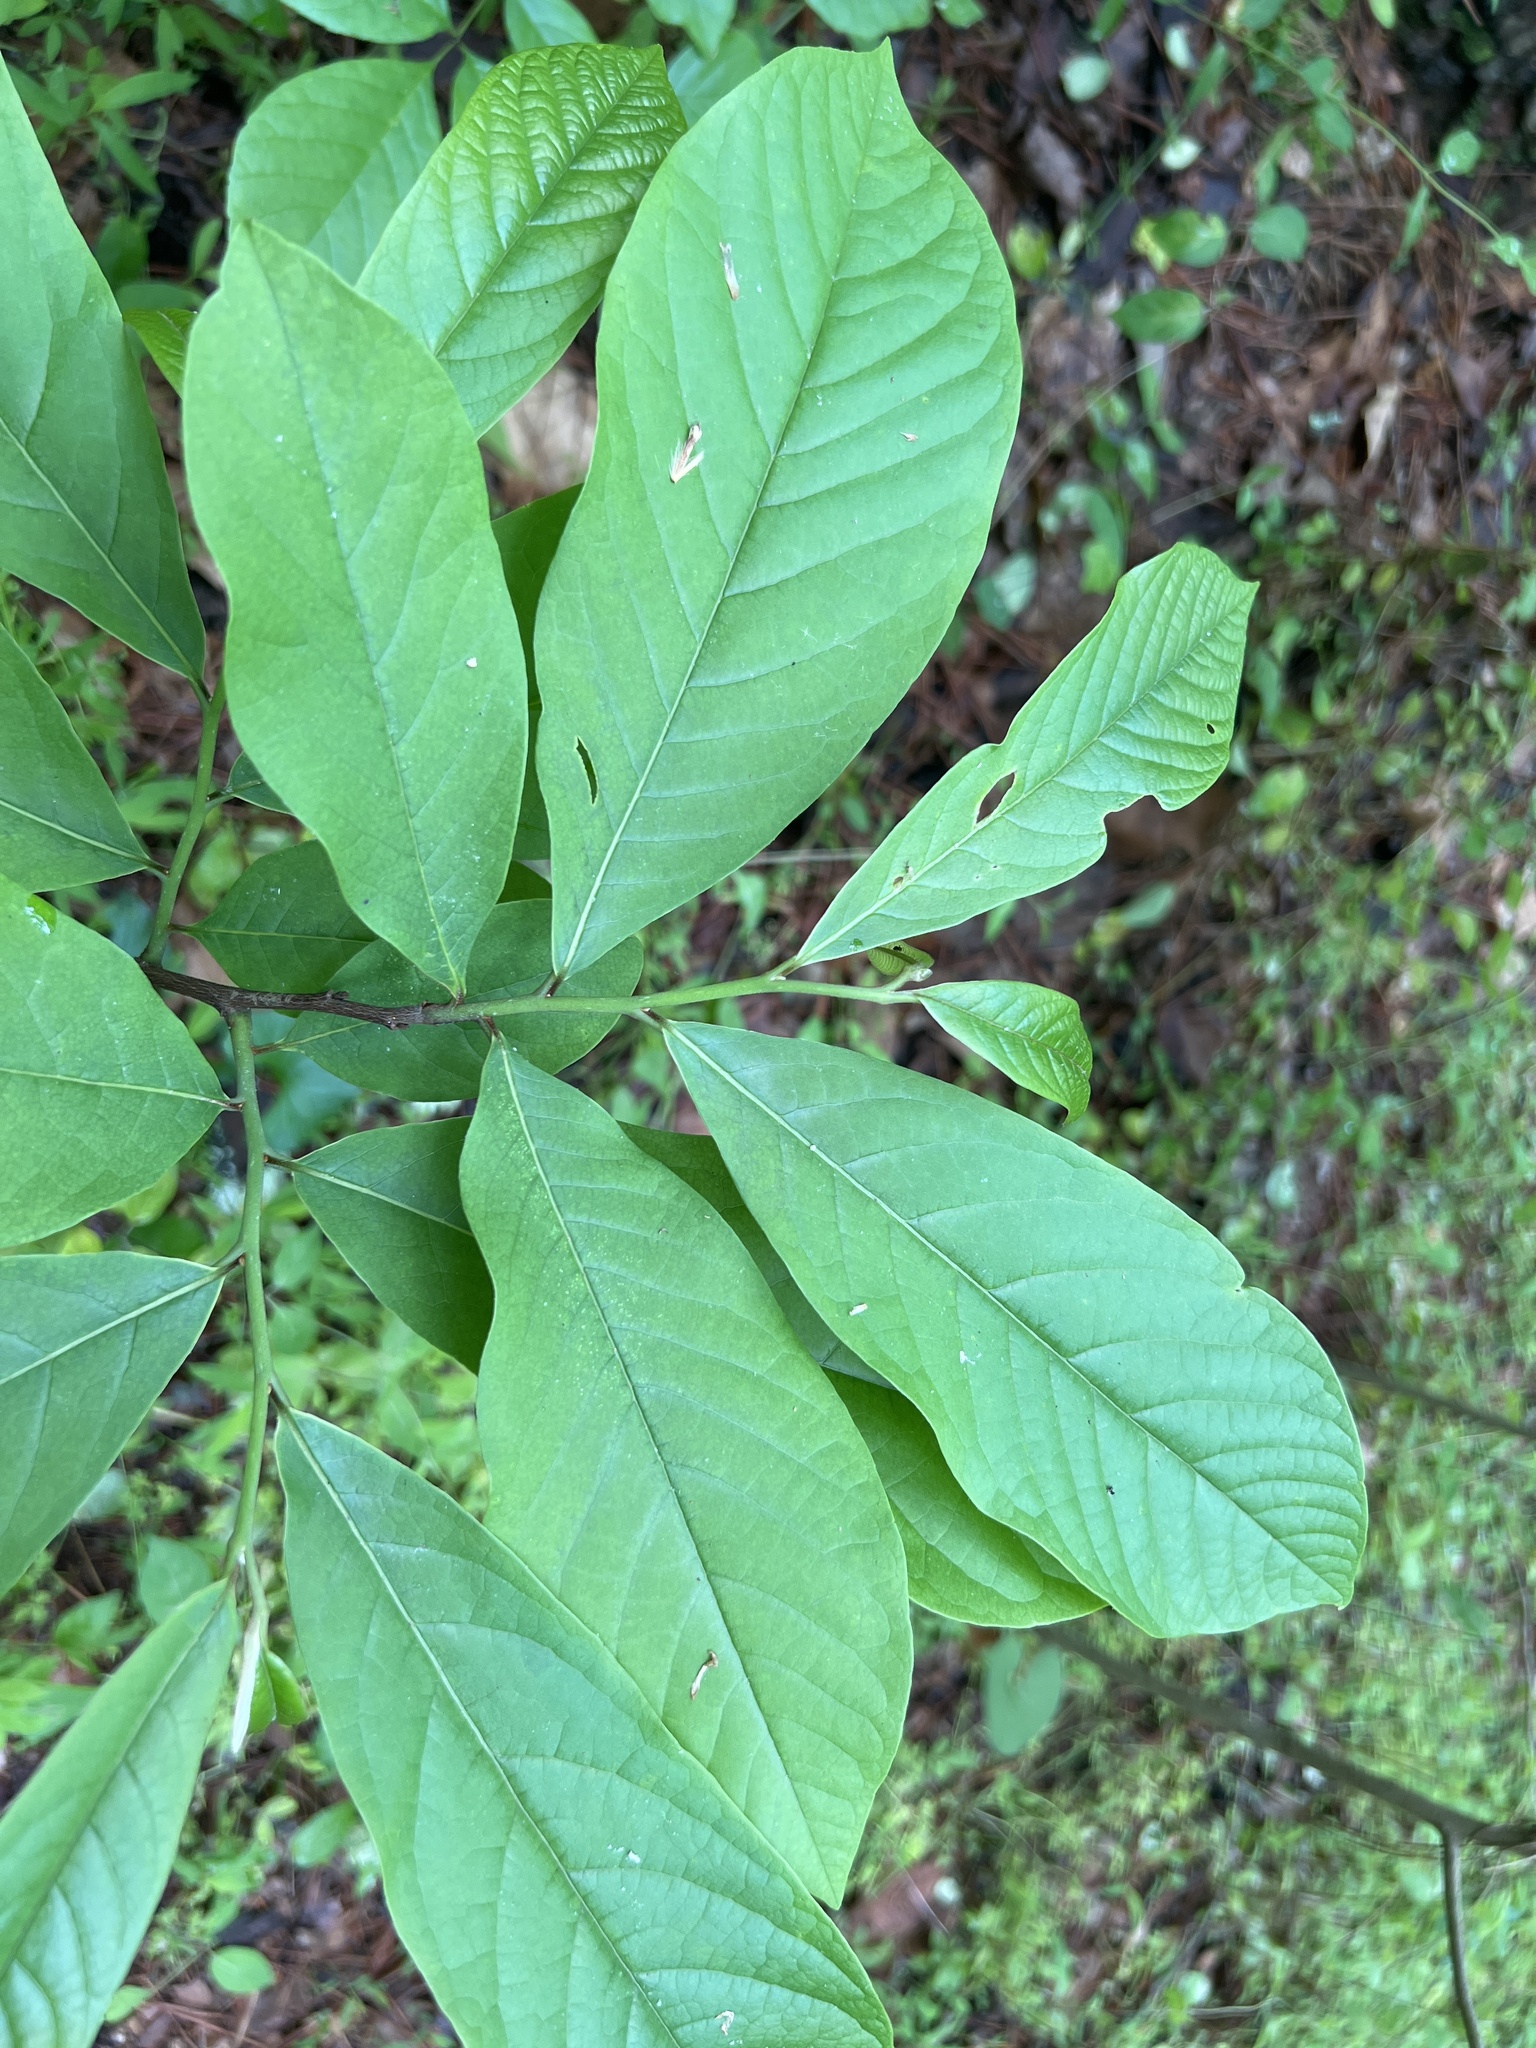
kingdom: Plantae
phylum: Tracheophyta
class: Magnoliopsida
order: Magnoliales
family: Annonaceae
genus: Asimina
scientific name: Asimina triloba
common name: Dog-banana
